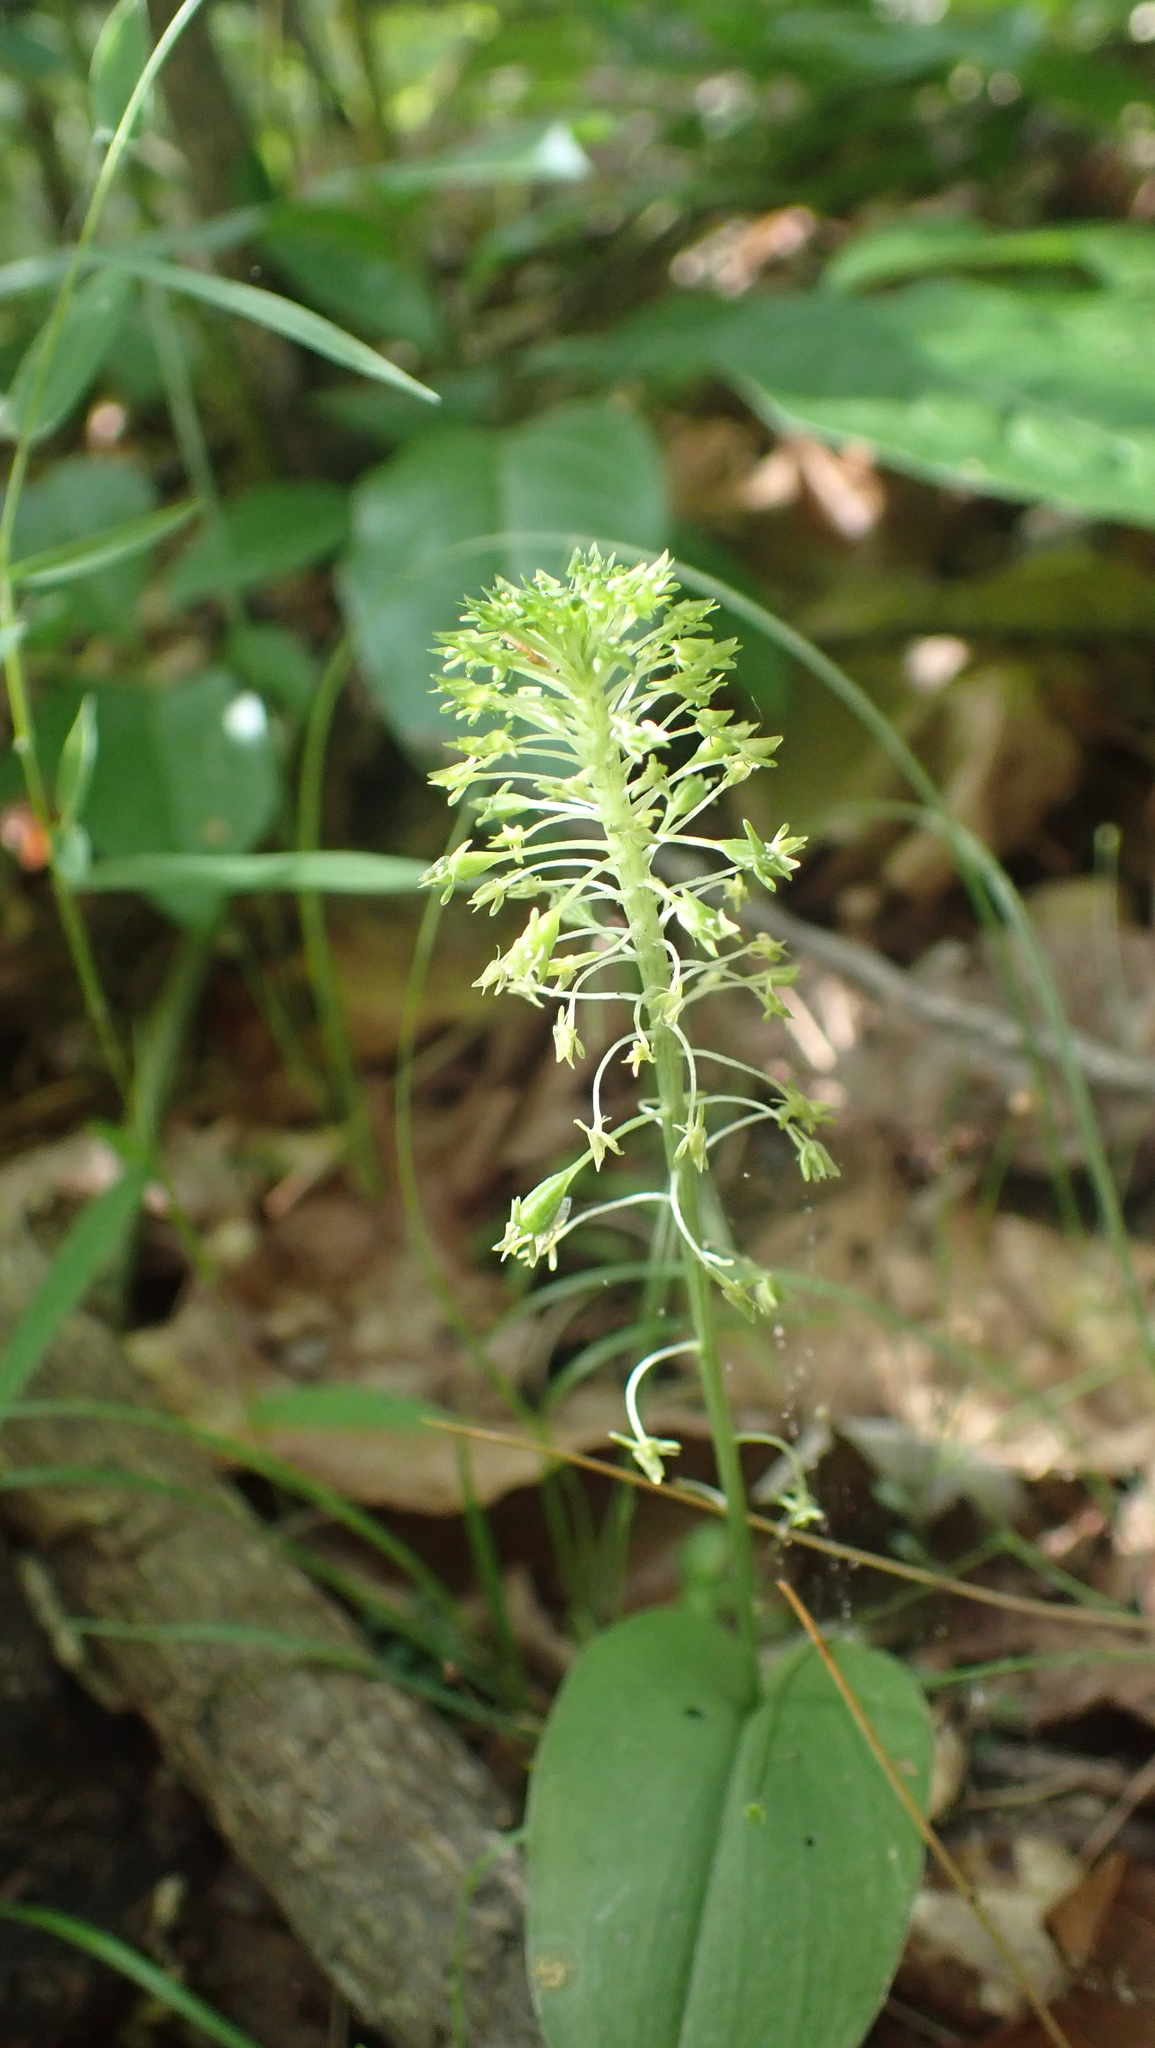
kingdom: Plantae
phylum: Tracheophyta
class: Liliopsida
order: Asparagales
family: Orchidaceae
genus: Malaxis
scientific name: Malaxis unifolia
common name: Green adder's-mouth
